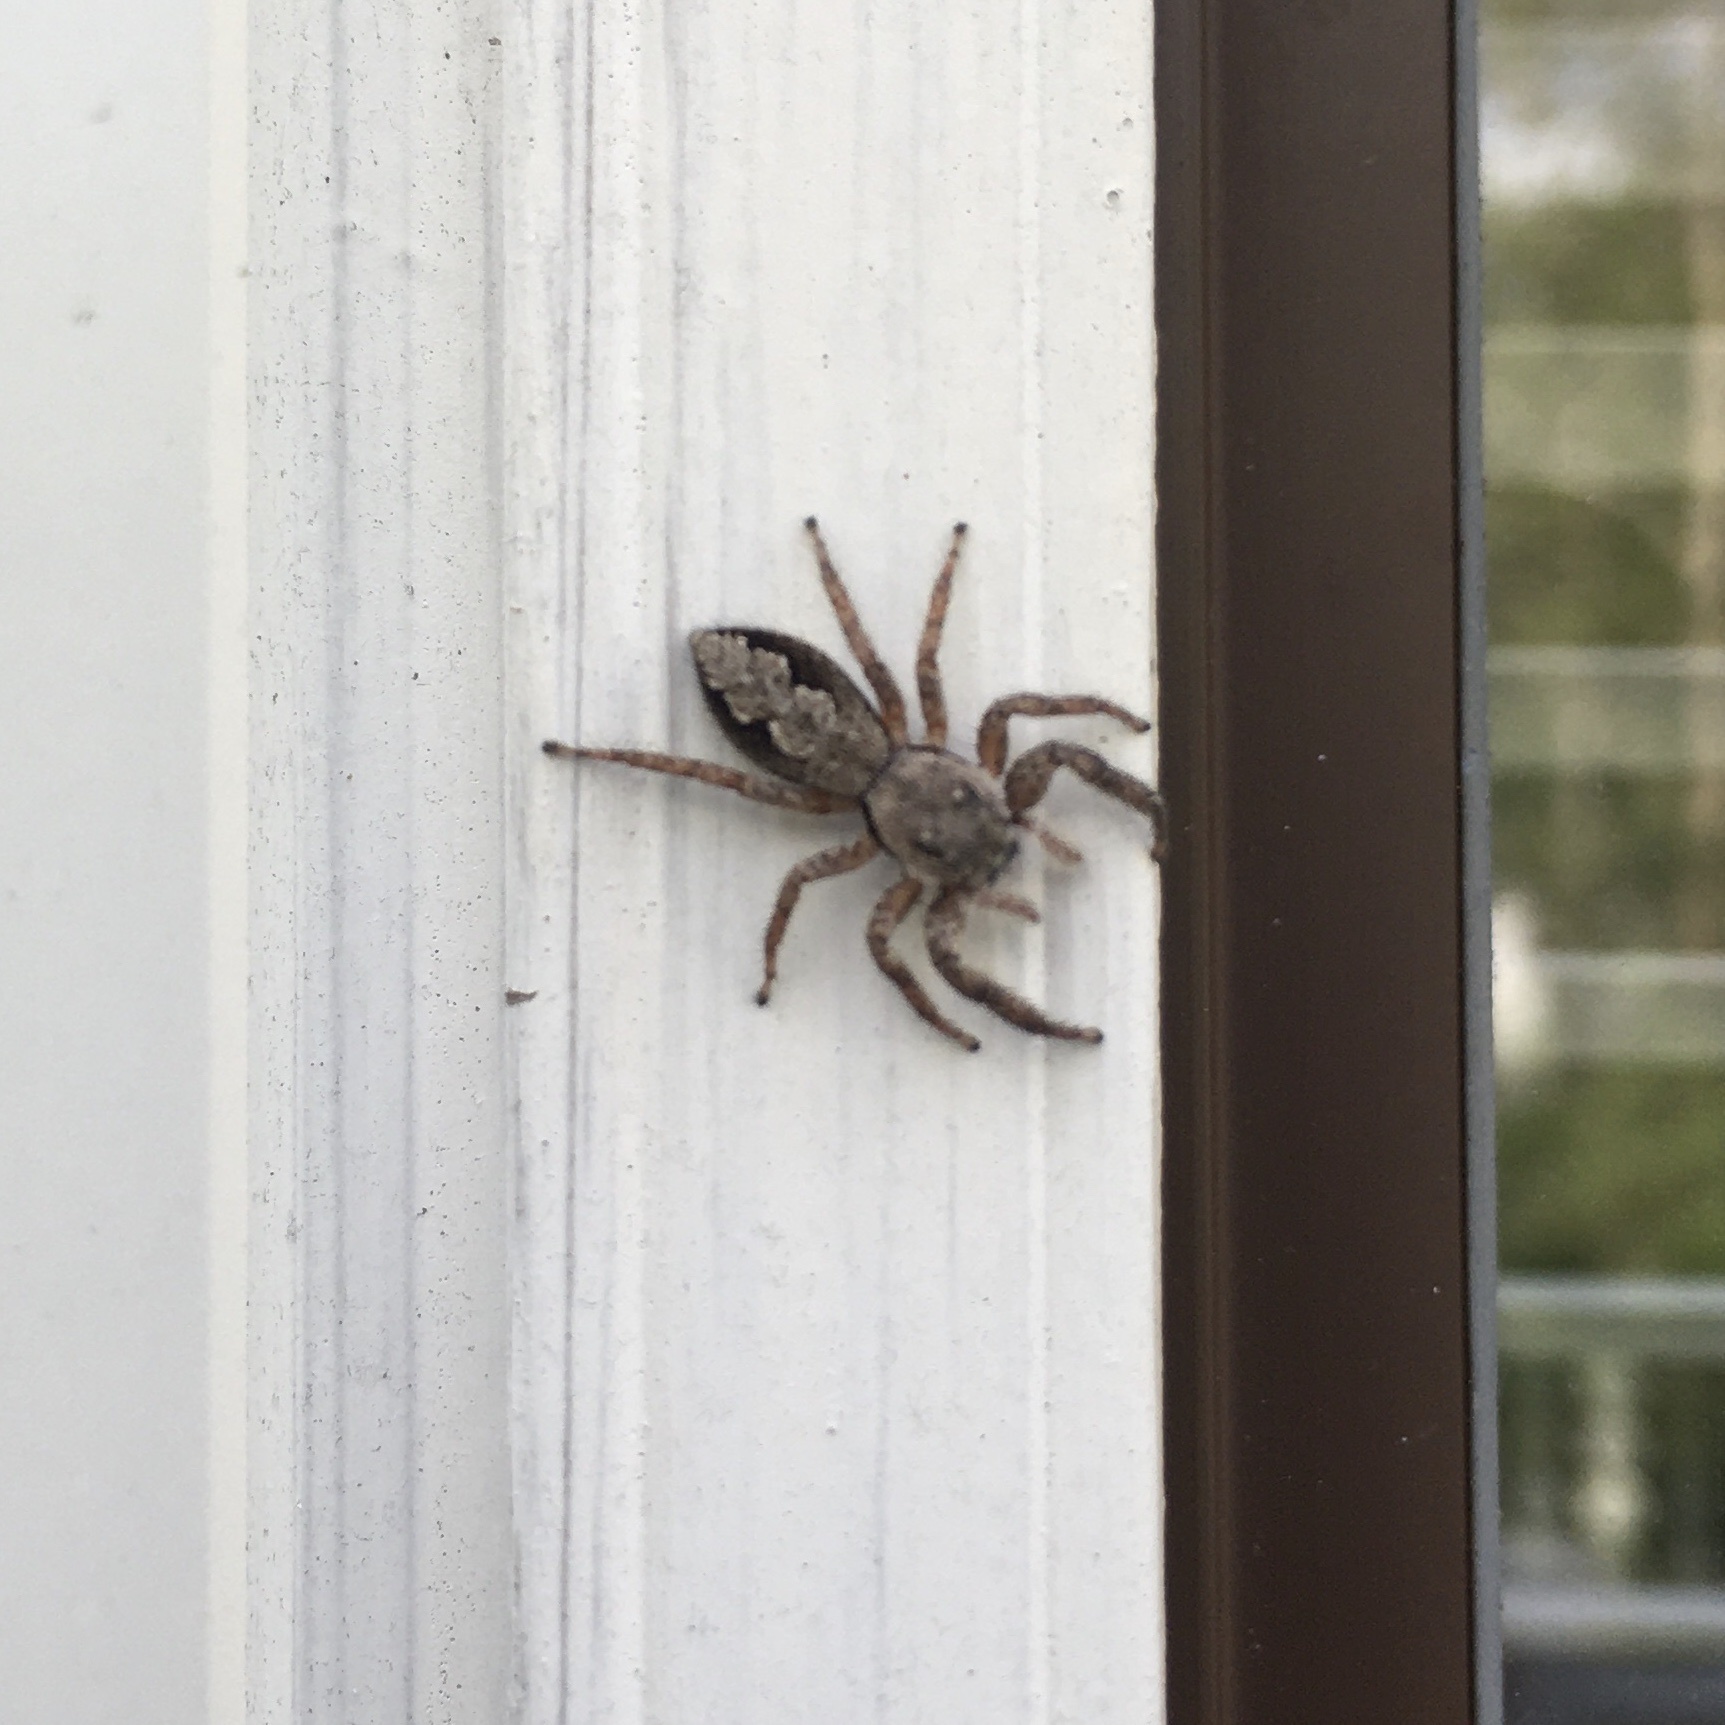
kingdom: Animalia
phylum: Arthropoda
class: Arachnida
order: Araneae
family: Salticidae
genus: Platycryptus
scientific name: Platycryptus undatus
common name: Tan jumping spider
